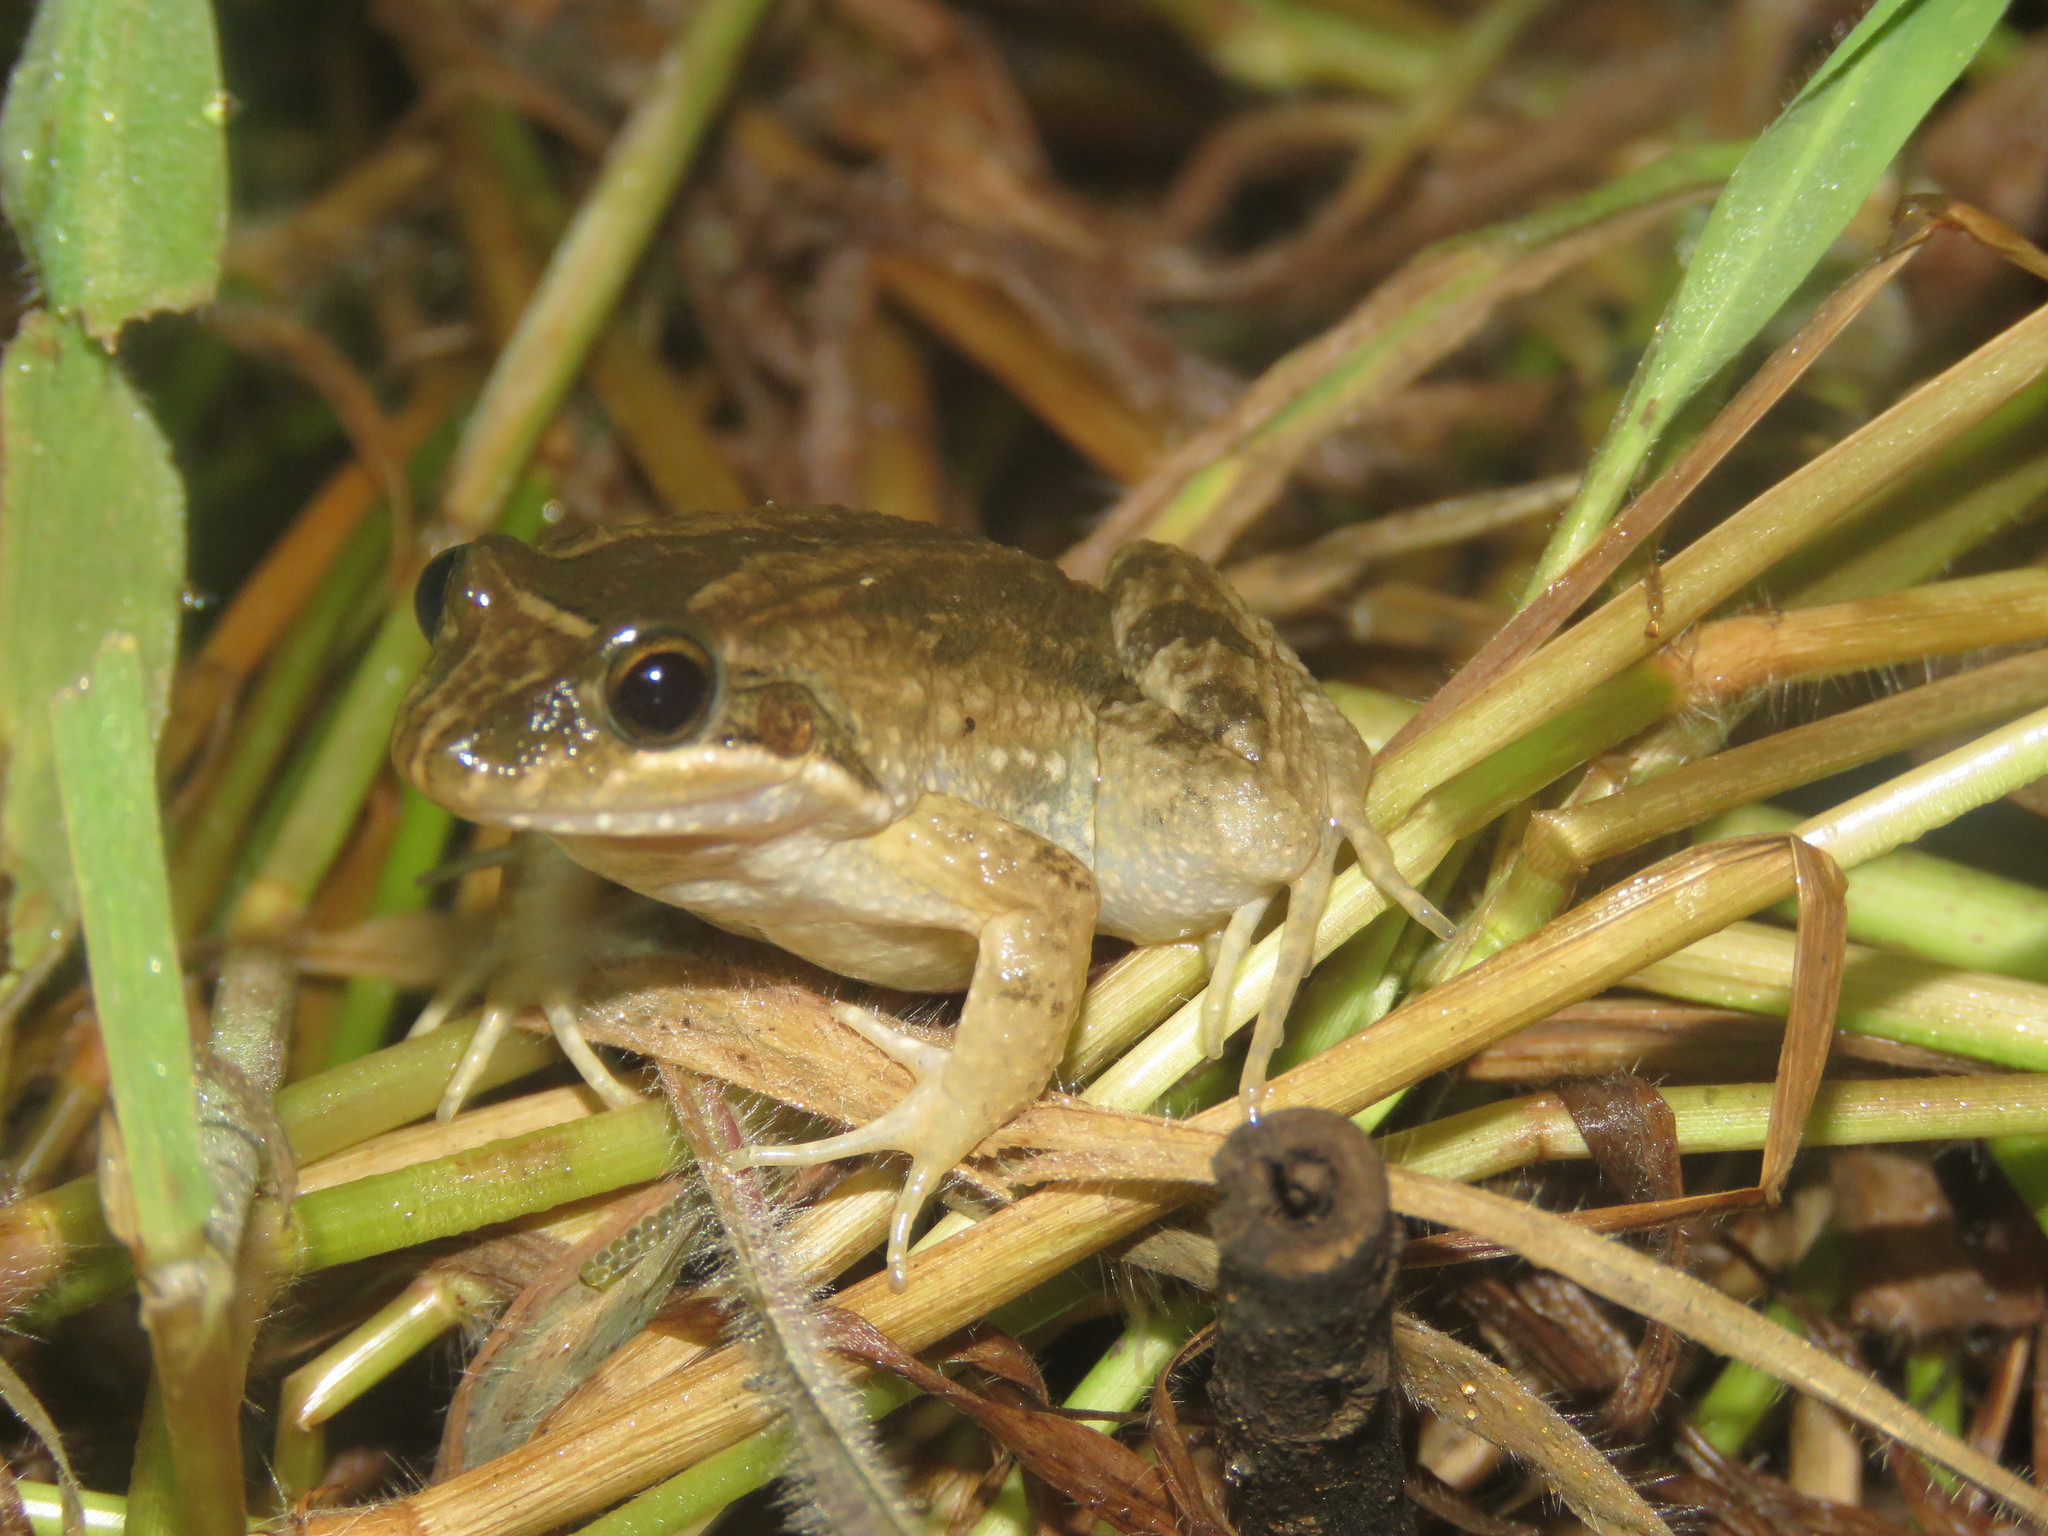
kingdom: Animalia
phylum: Chordata
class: Amphibia
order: Anura
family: Leptodactylidae
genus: Leptodactylus
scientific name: Leptodactylus podicipinus
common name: Pointedbelly frog
